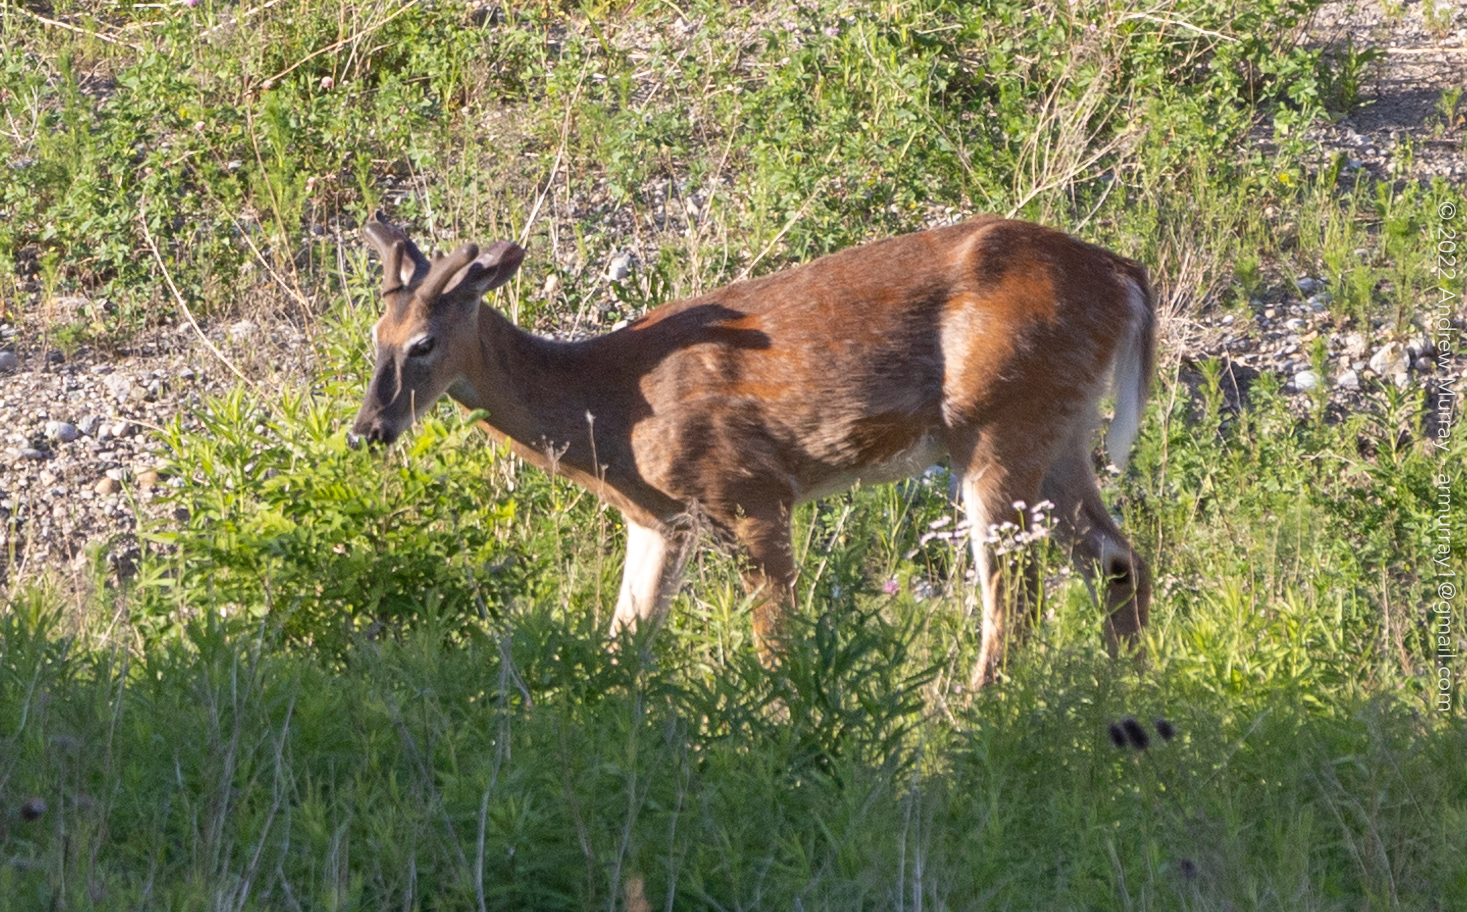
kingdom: Animalia
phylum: Chordata
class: Mammalia
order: Artiodactyla
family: Cervidae
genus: Odocoileus
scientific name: Odocoileus virginianus
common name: White-tailed deer
